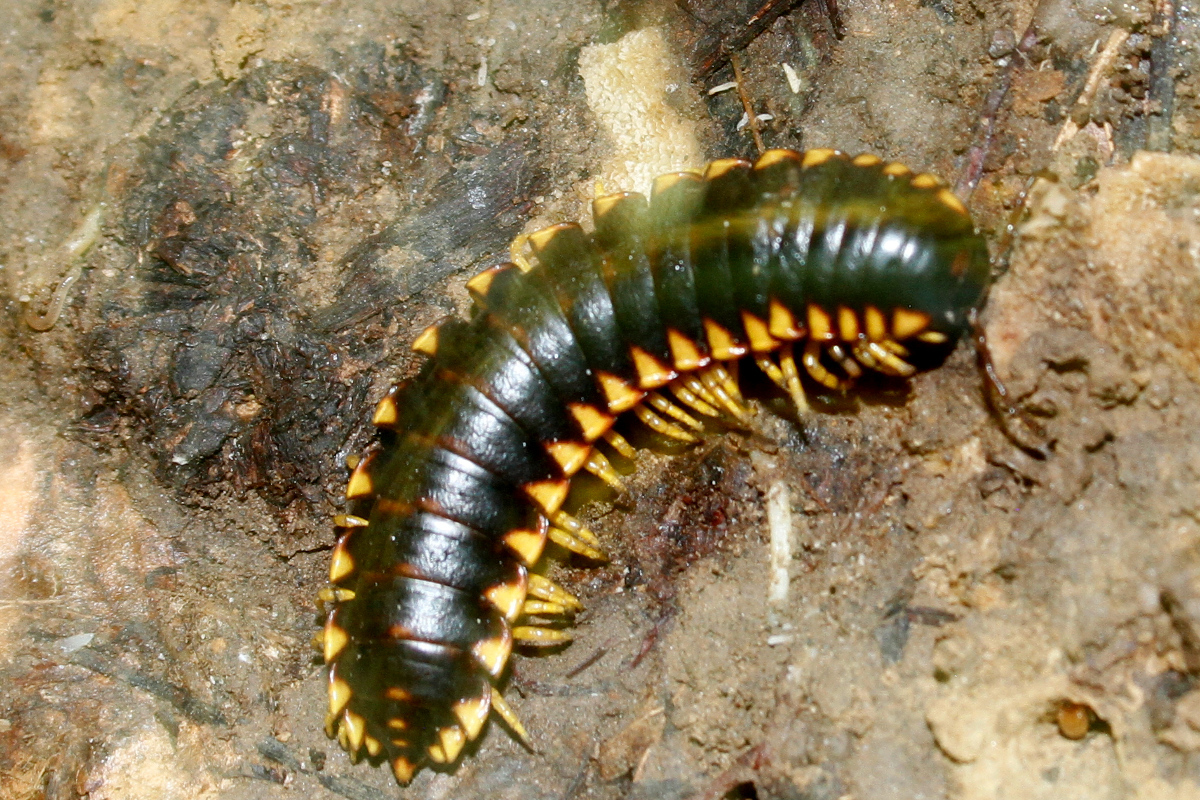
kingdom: Animalia
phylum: Arthropoda
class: Diplopoda
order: Polydesmida
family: Xystodesmidae
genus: Apheloria
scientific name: Apheloria tigana
